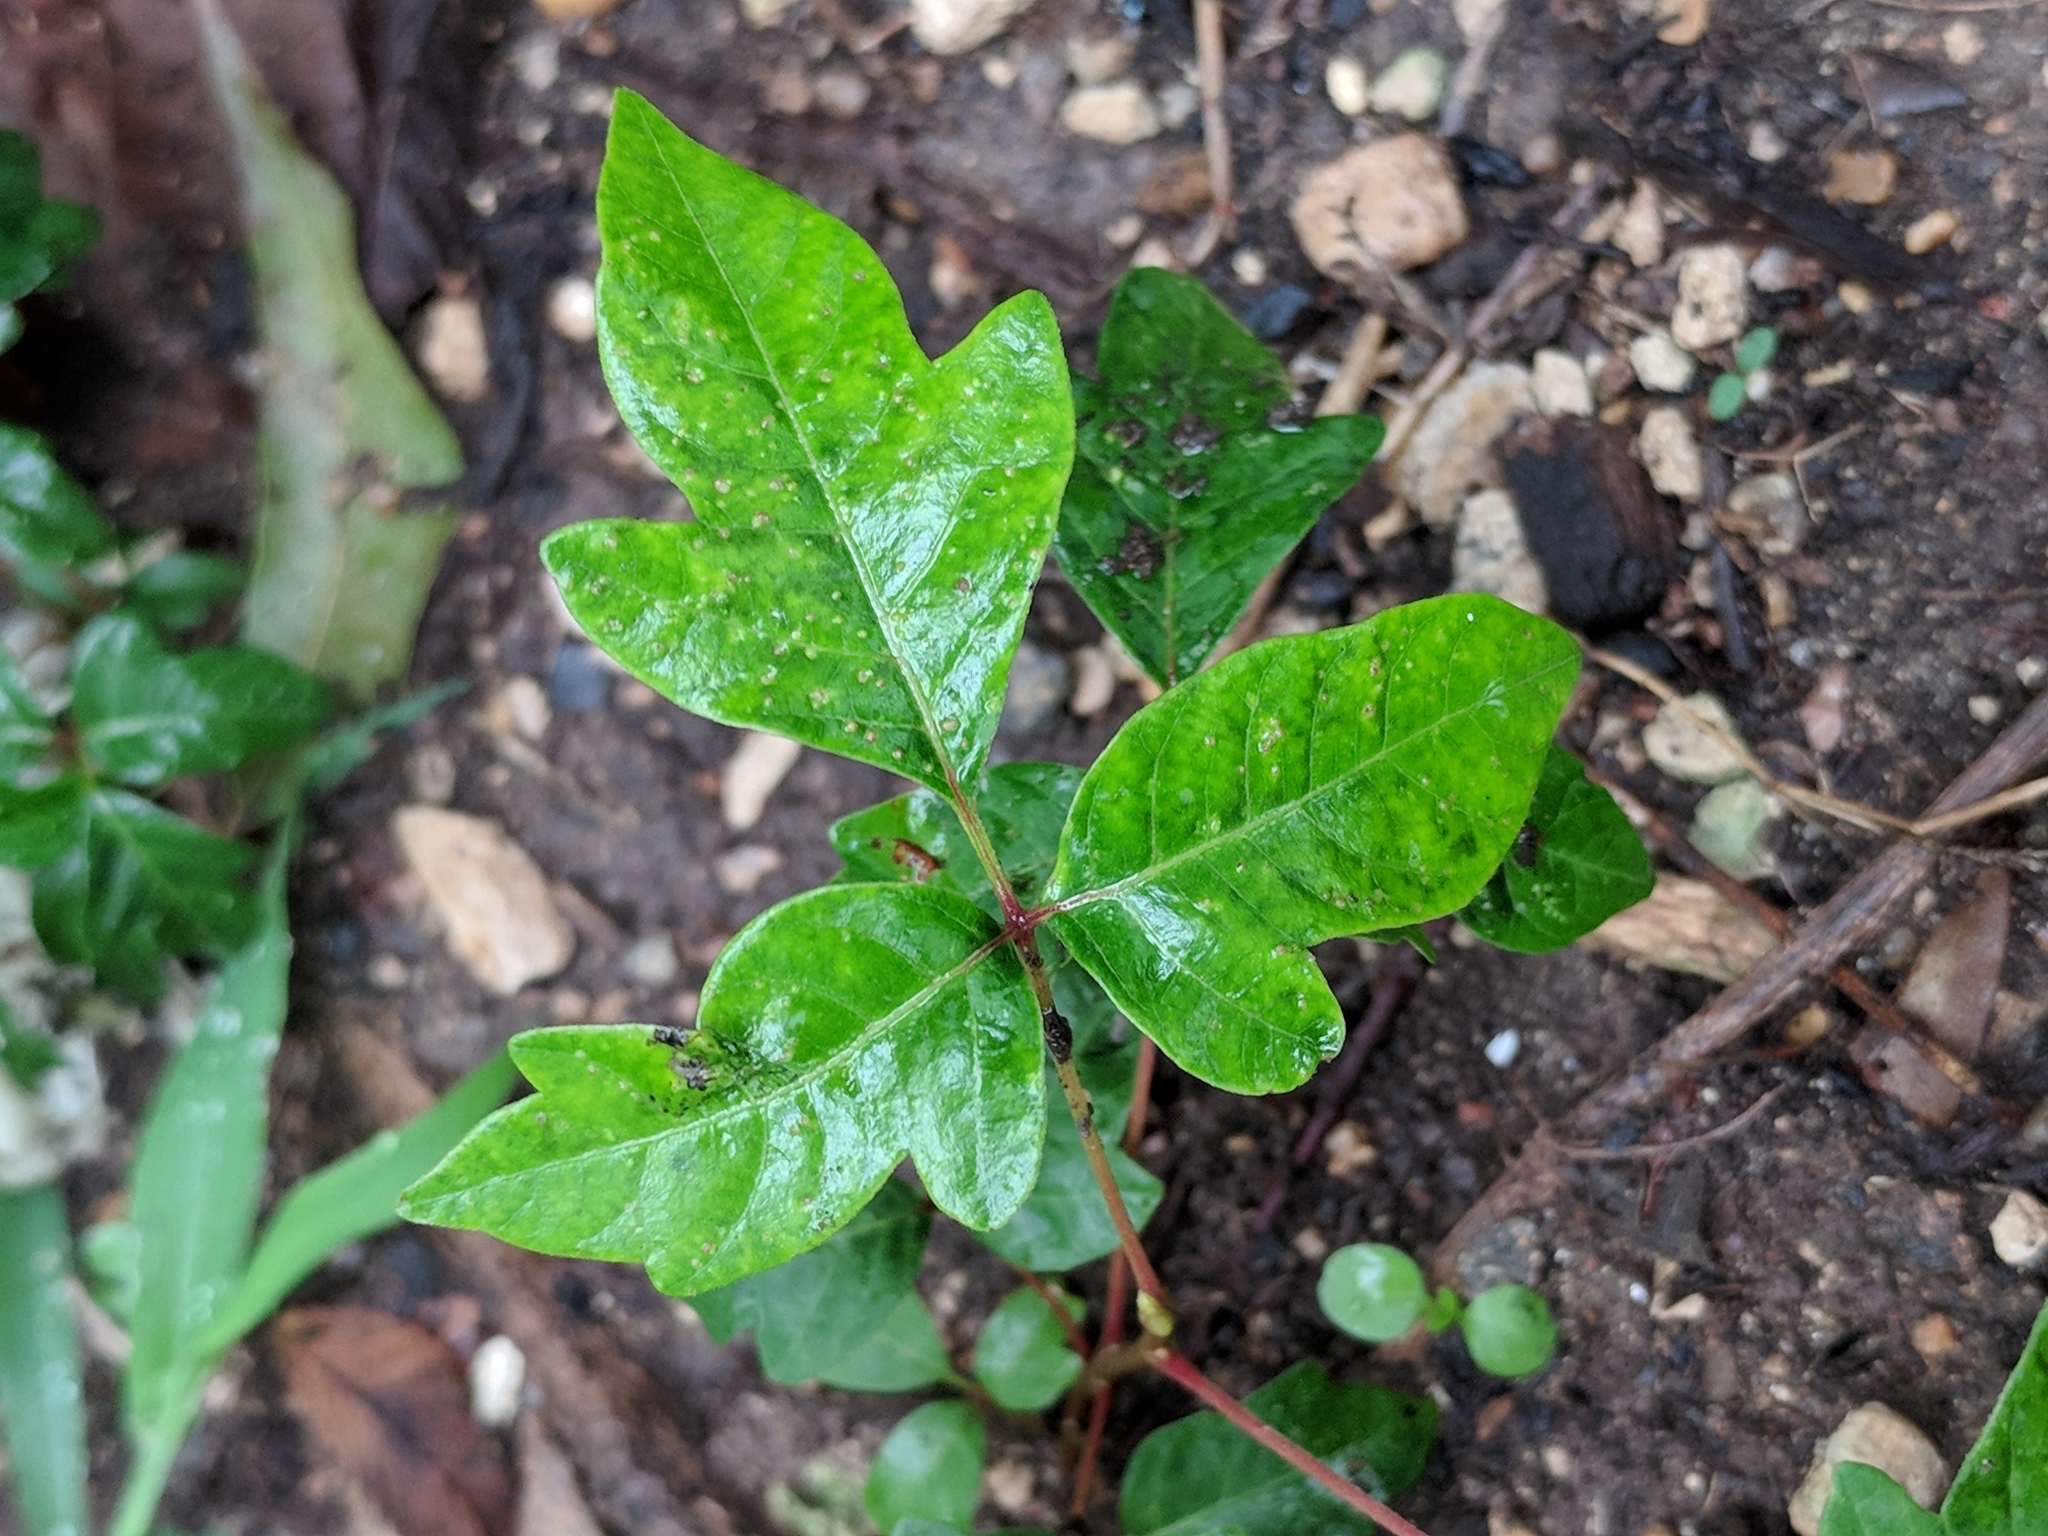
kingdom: Plantae
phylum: Tracheophyta
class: Magnoliopsida
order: Sapindales
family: Anacardiaceae
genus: Toxicodendron
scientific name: Toxicodendron radicans
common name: Poison ivy
